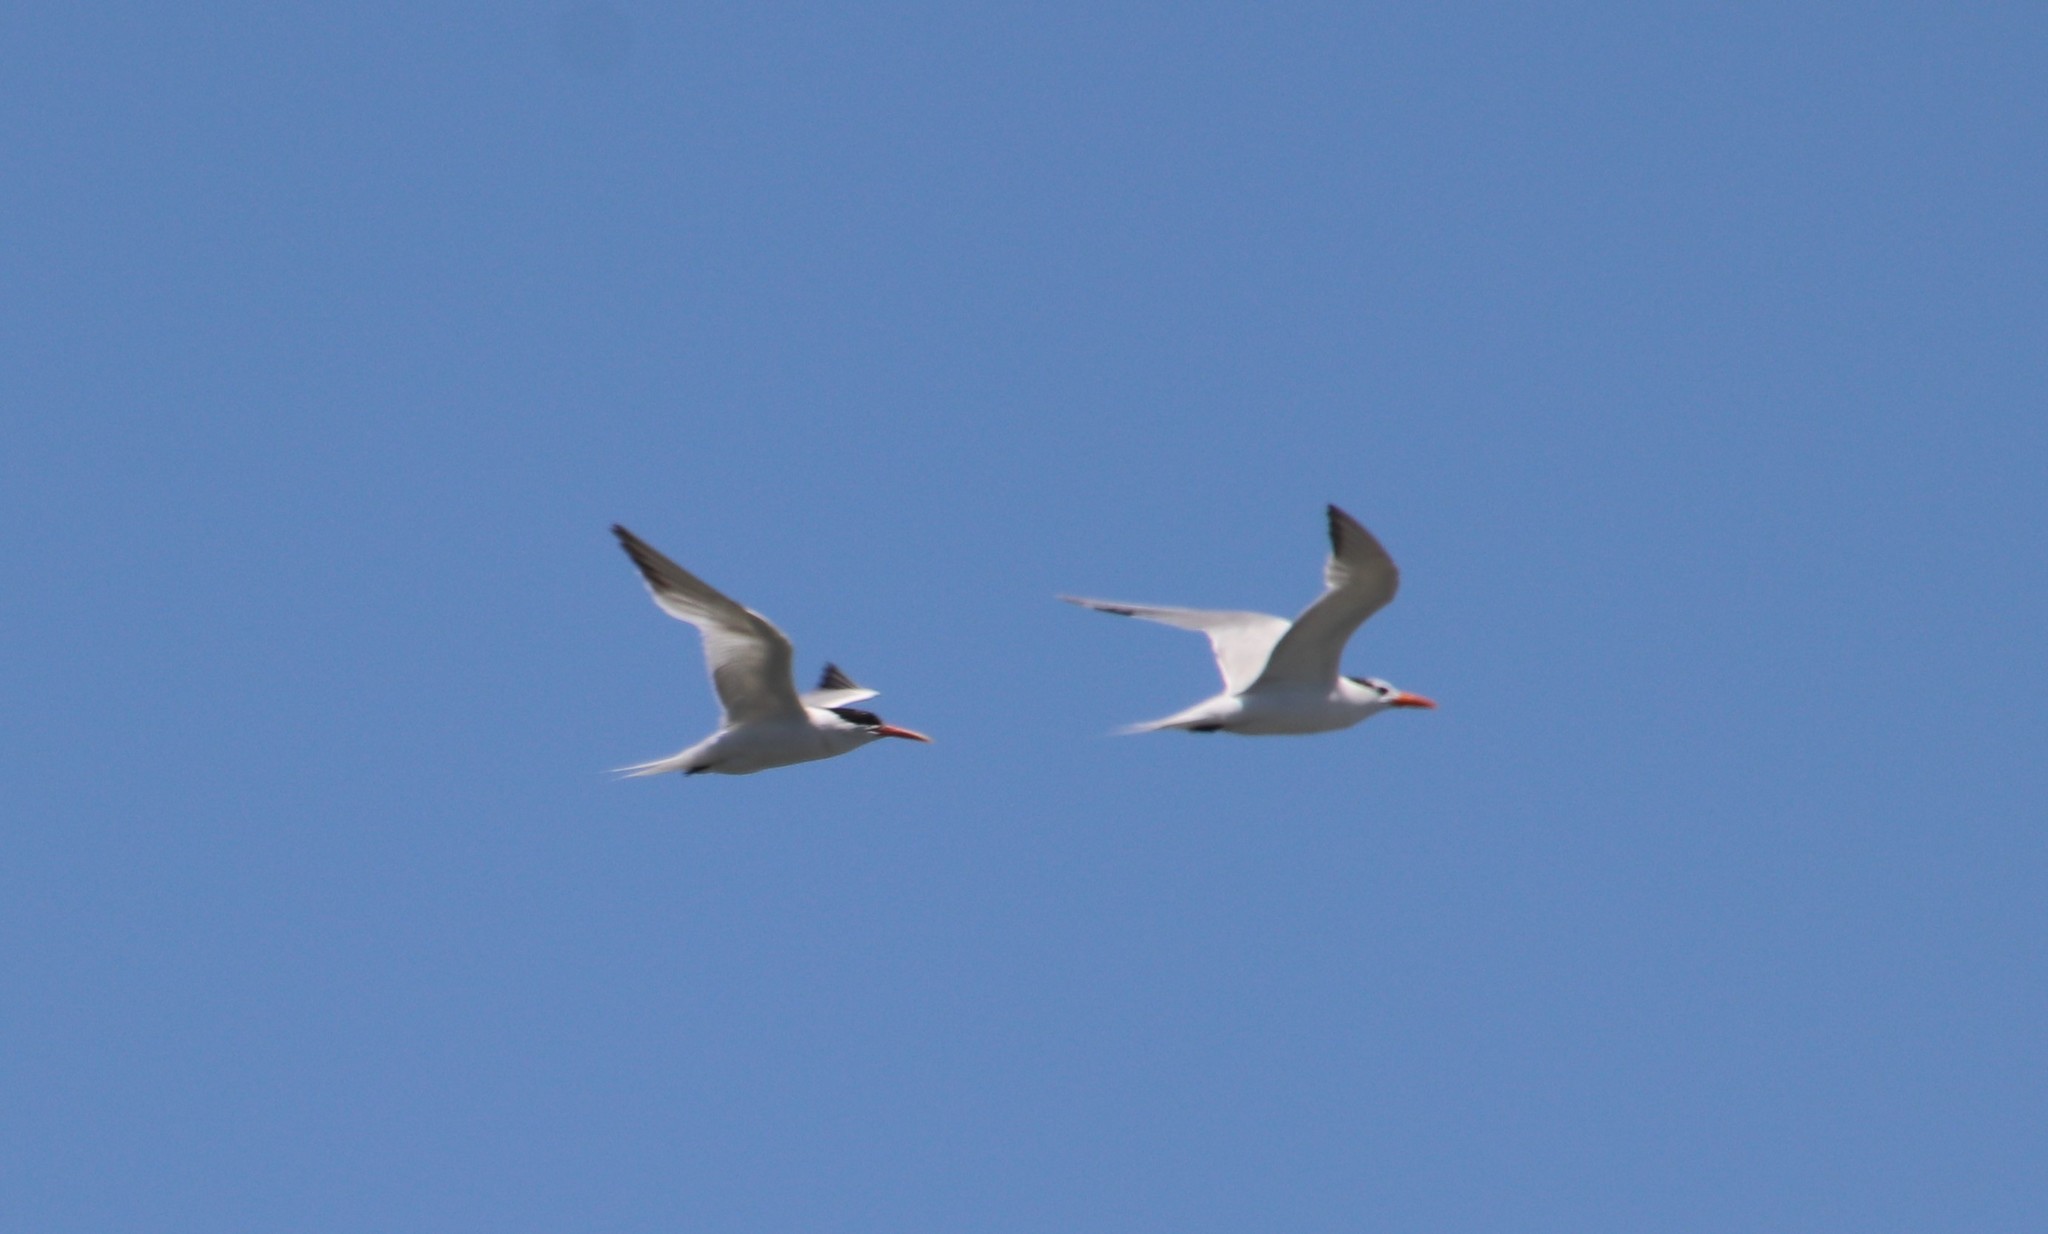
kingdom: Animalia
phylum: Chordata
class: Aves
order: Charadriiformes
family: Laridae
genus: Thalasseus
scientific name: Thalasseus maximus
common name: Royal tern
